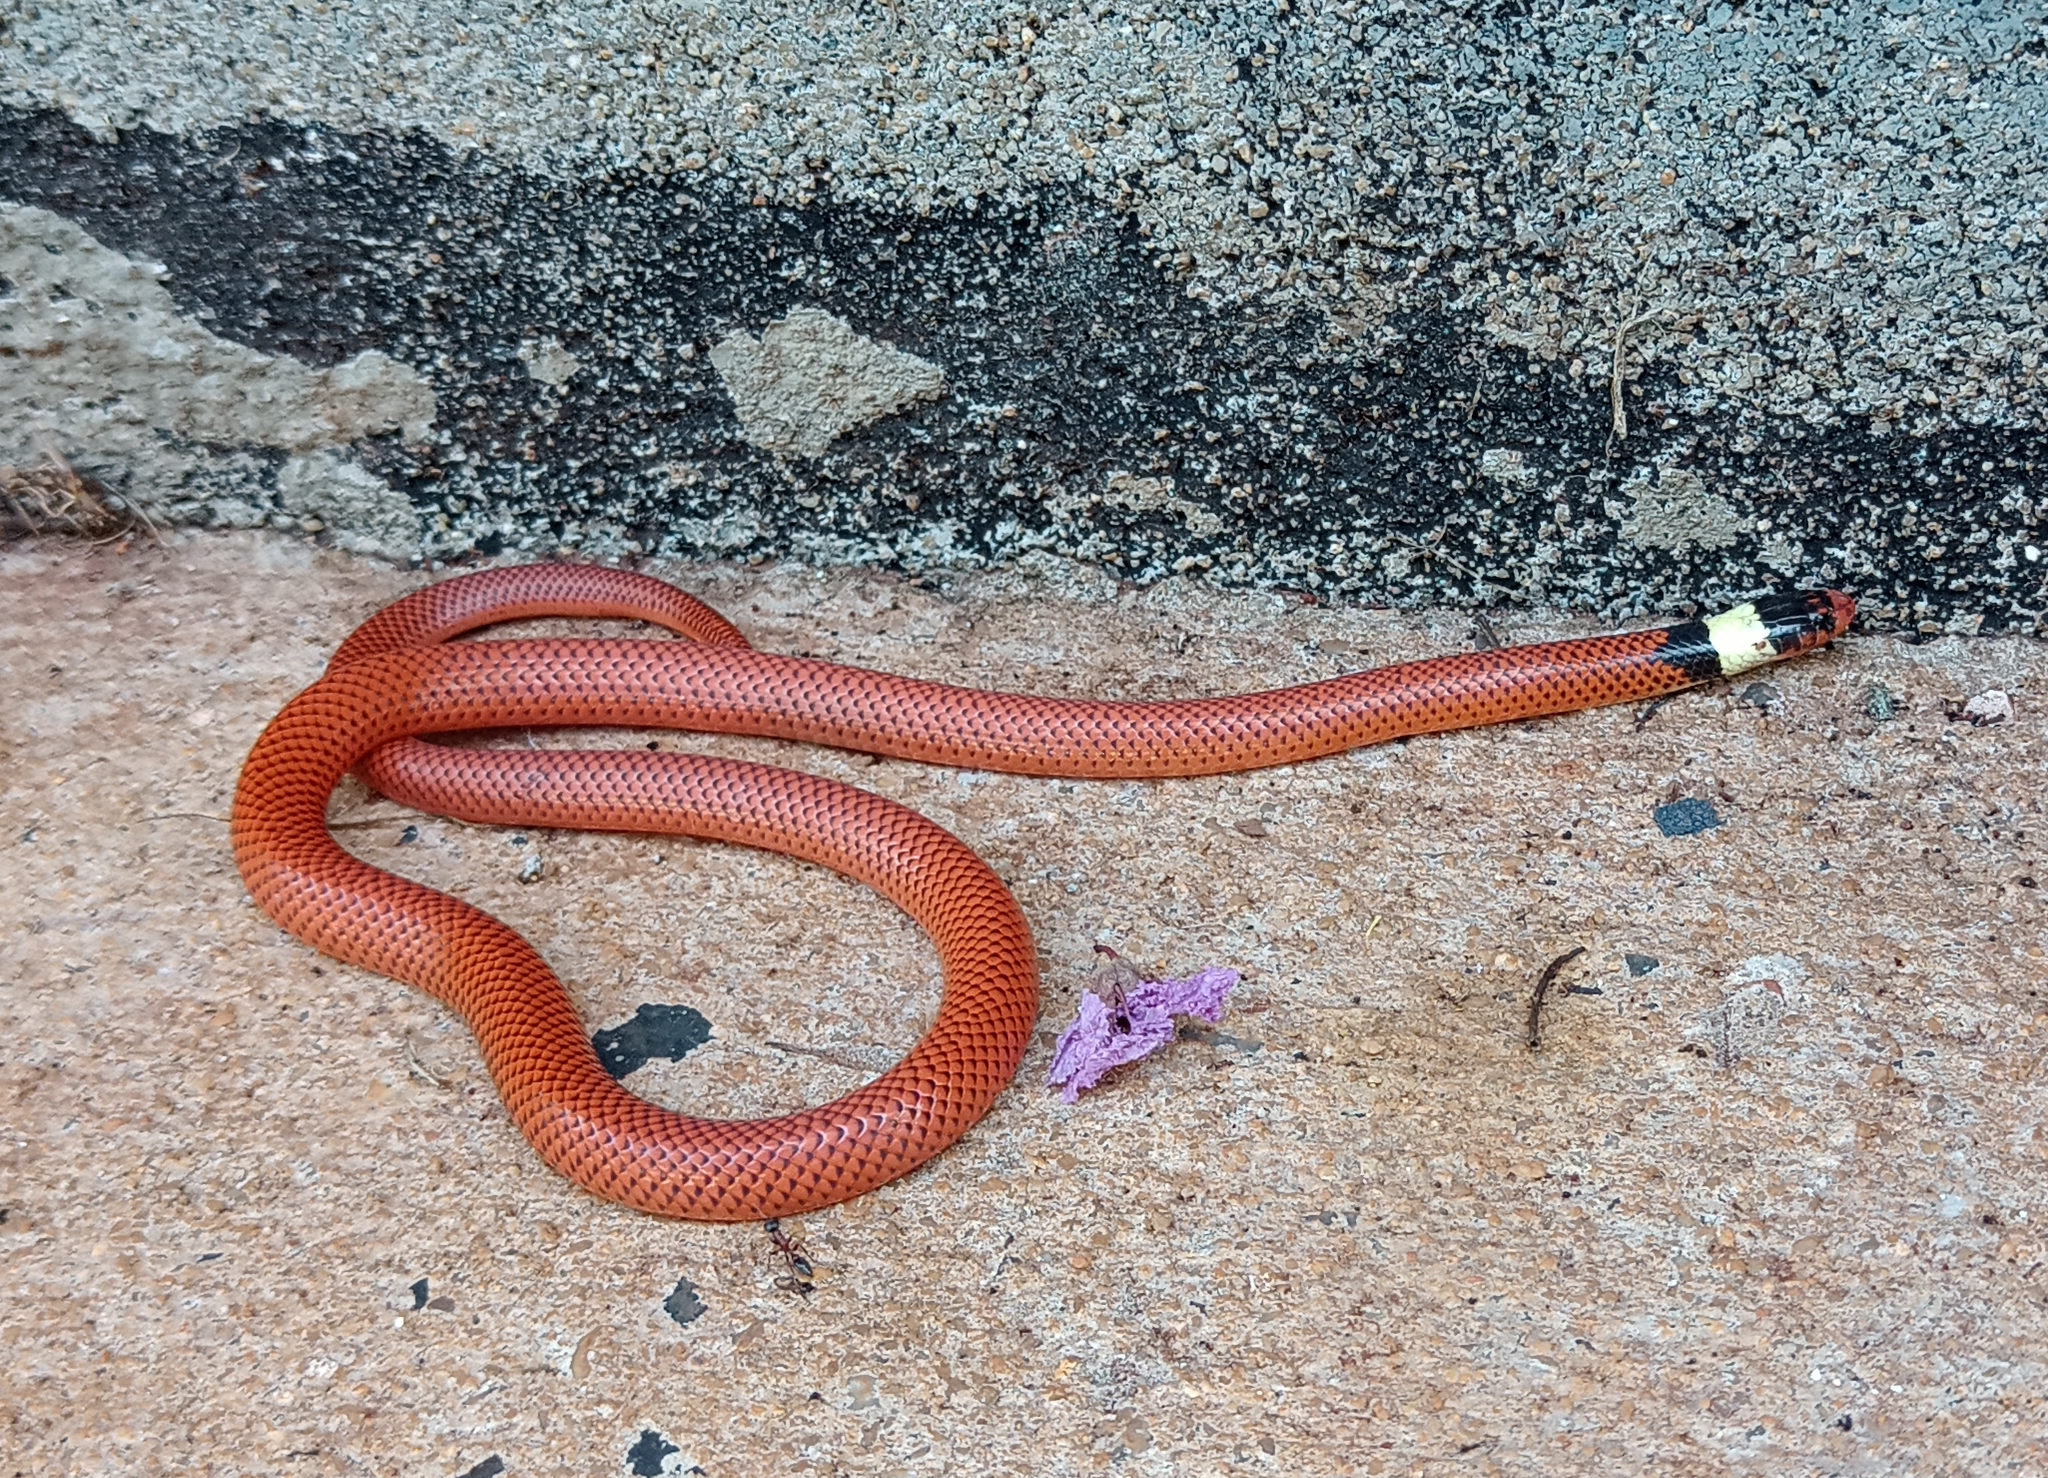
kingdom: Animalia
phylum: Chordata
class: Squamata
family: Colubridae
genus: Phalotris
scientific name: Phalotris mertensi
